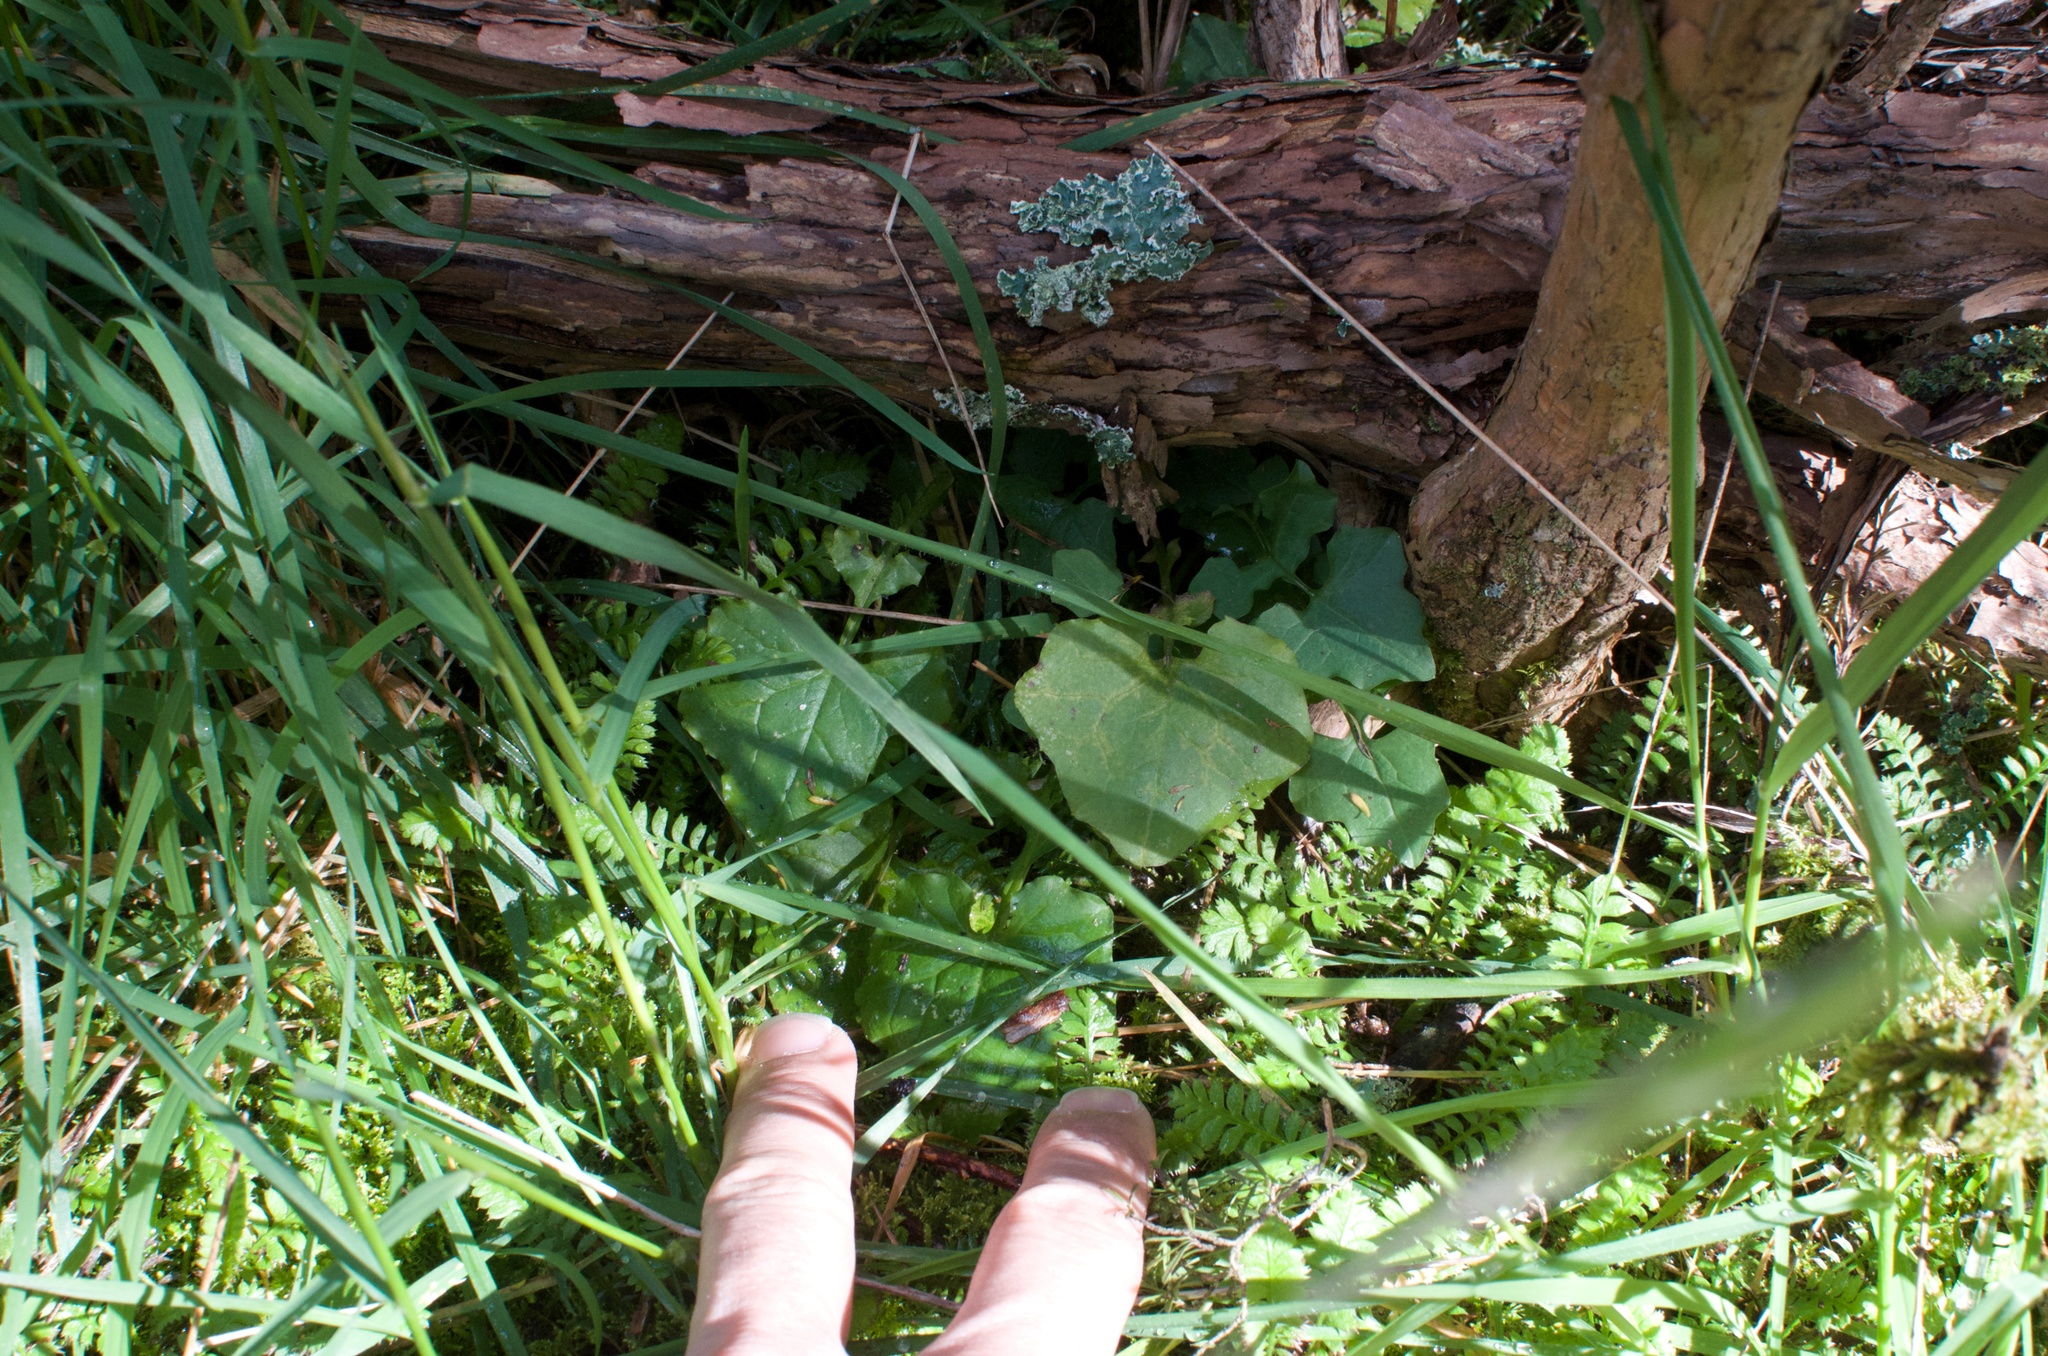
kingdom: Plantae
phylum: Tracheophyta
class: Magnoliopsida
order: Asterales
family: Asteraceae
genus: Mycelis
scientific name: Mycelis muralis
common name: Wall lettuce
